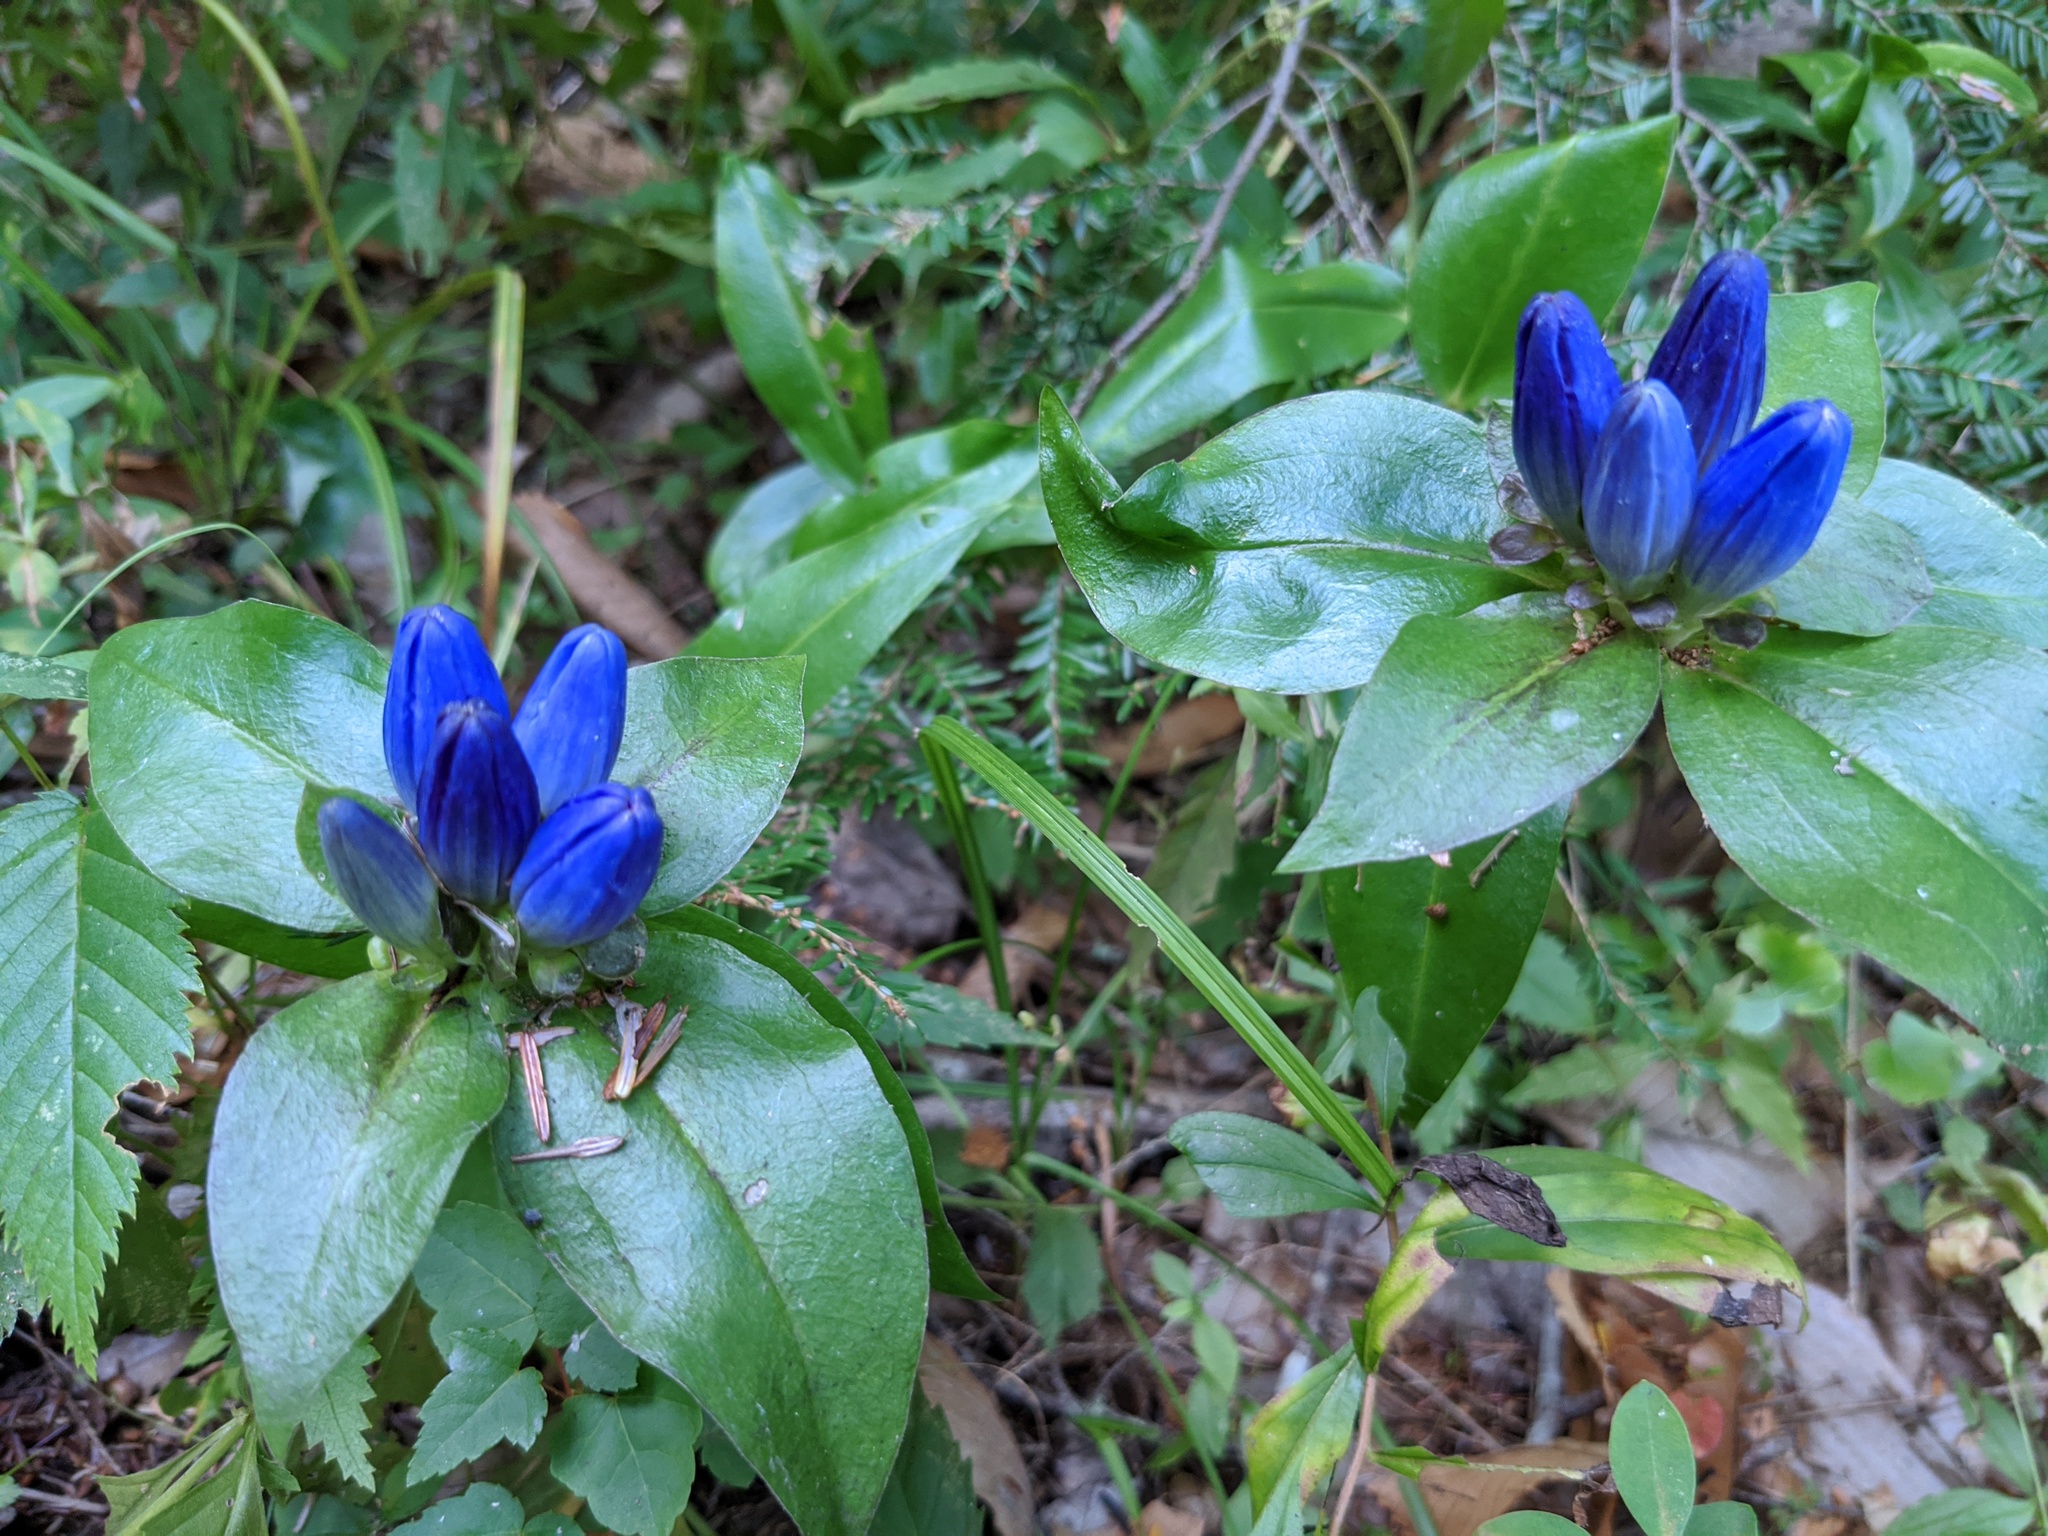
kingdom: Plantae
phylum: Tracheophyta
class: Magnoliopsida
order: Gentianales
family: Gentianaceae
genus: Gentiana
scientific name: Gentiana clausa
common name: Blind gentian
